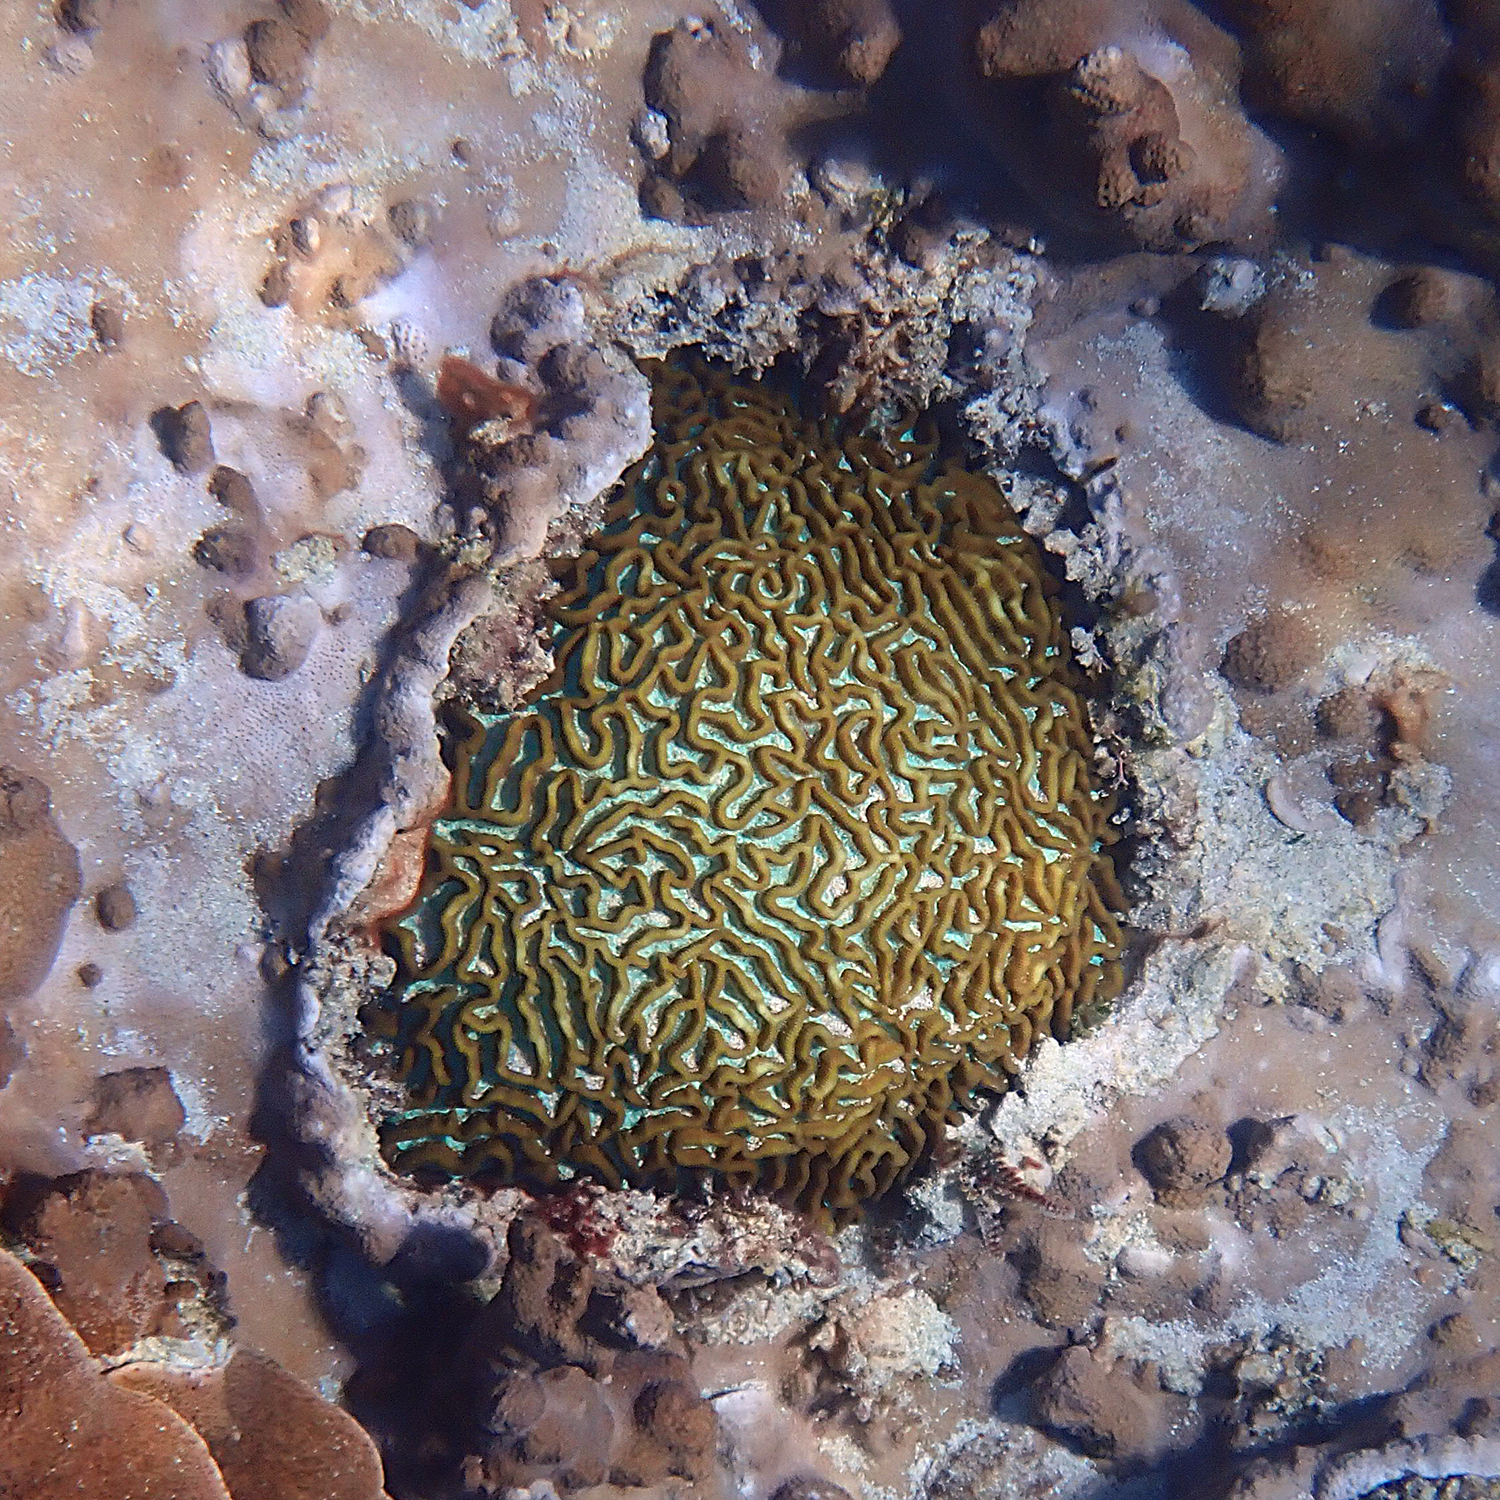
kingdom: Animalia
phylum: Cnidaria
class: Anthozoa
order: Scleractinia
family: Merulinidae
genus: Paragoniastrea
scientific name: Paragoniastrea australensis
